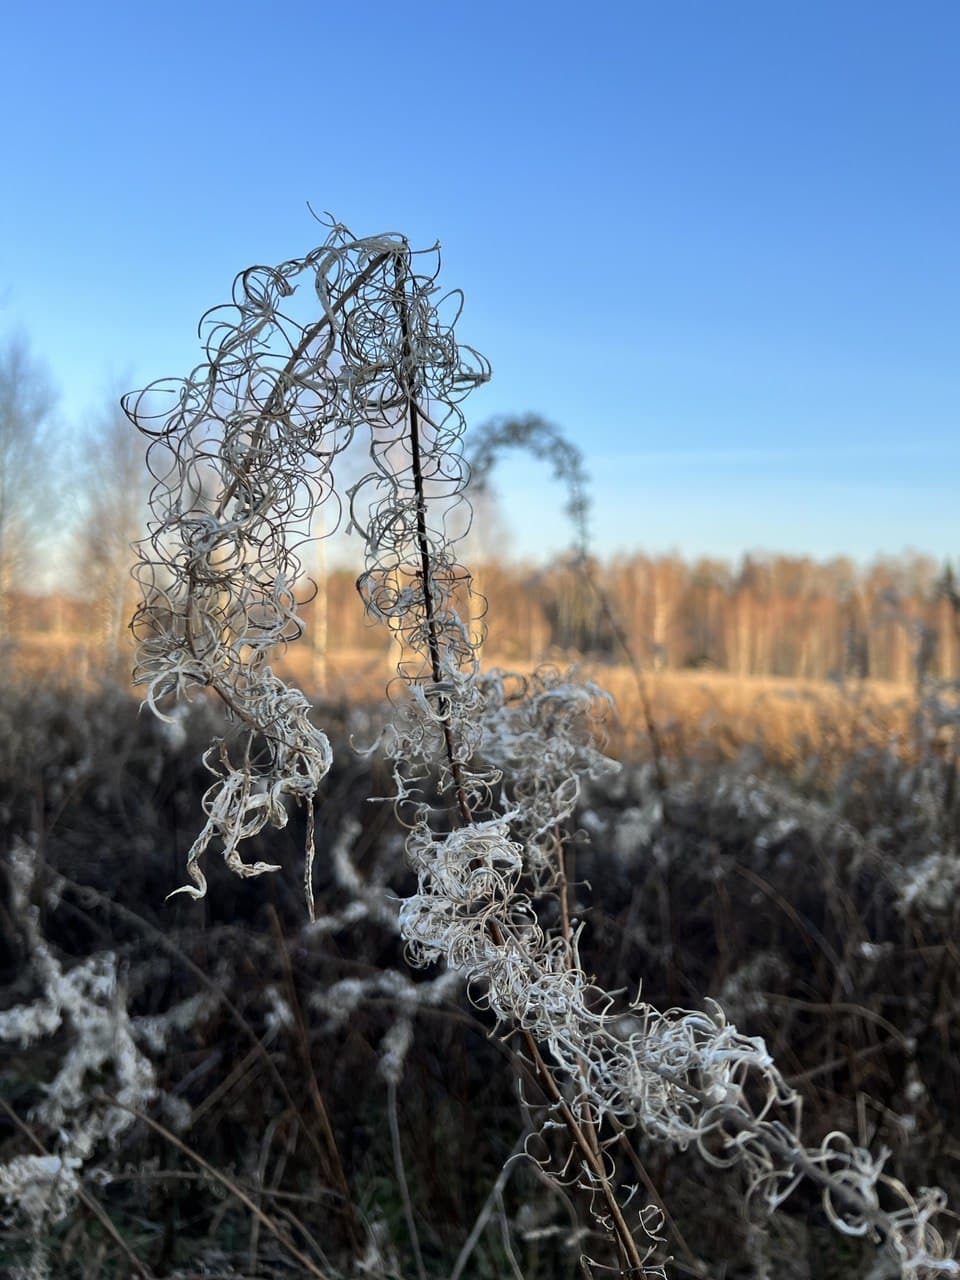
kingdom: Plantae
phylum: Tracheophyta
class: Magnoliopsida
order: Myrtales
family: Onagraceae
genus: Chamaenerion
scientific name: Chamaenerion angustifolium
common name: Fireweed
